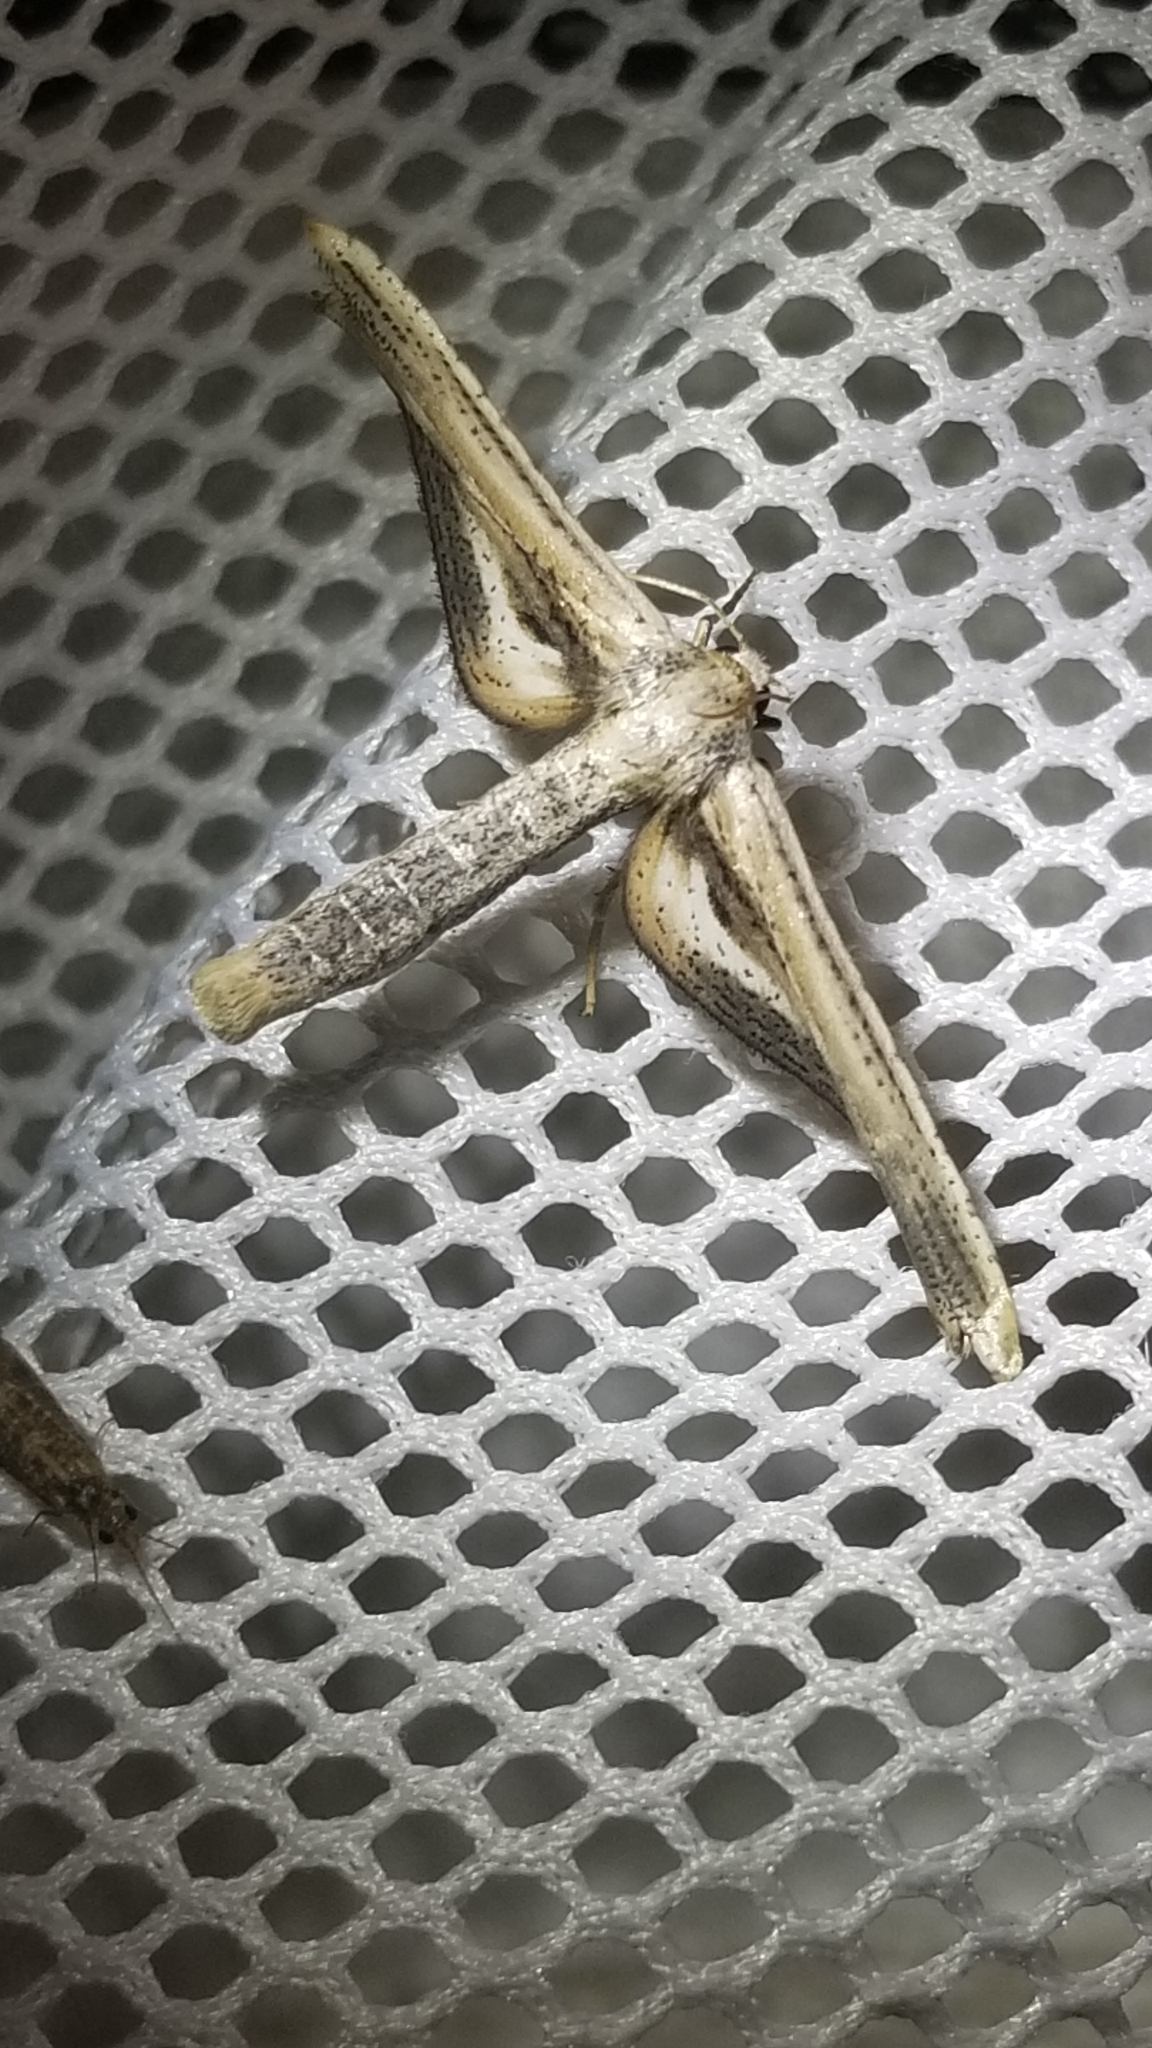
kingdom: Animalia
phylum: Arthropoda
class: Insecta
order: Lepidoptera
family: Thyrididae
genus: Meskea
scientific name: Meskea dyspteraria
